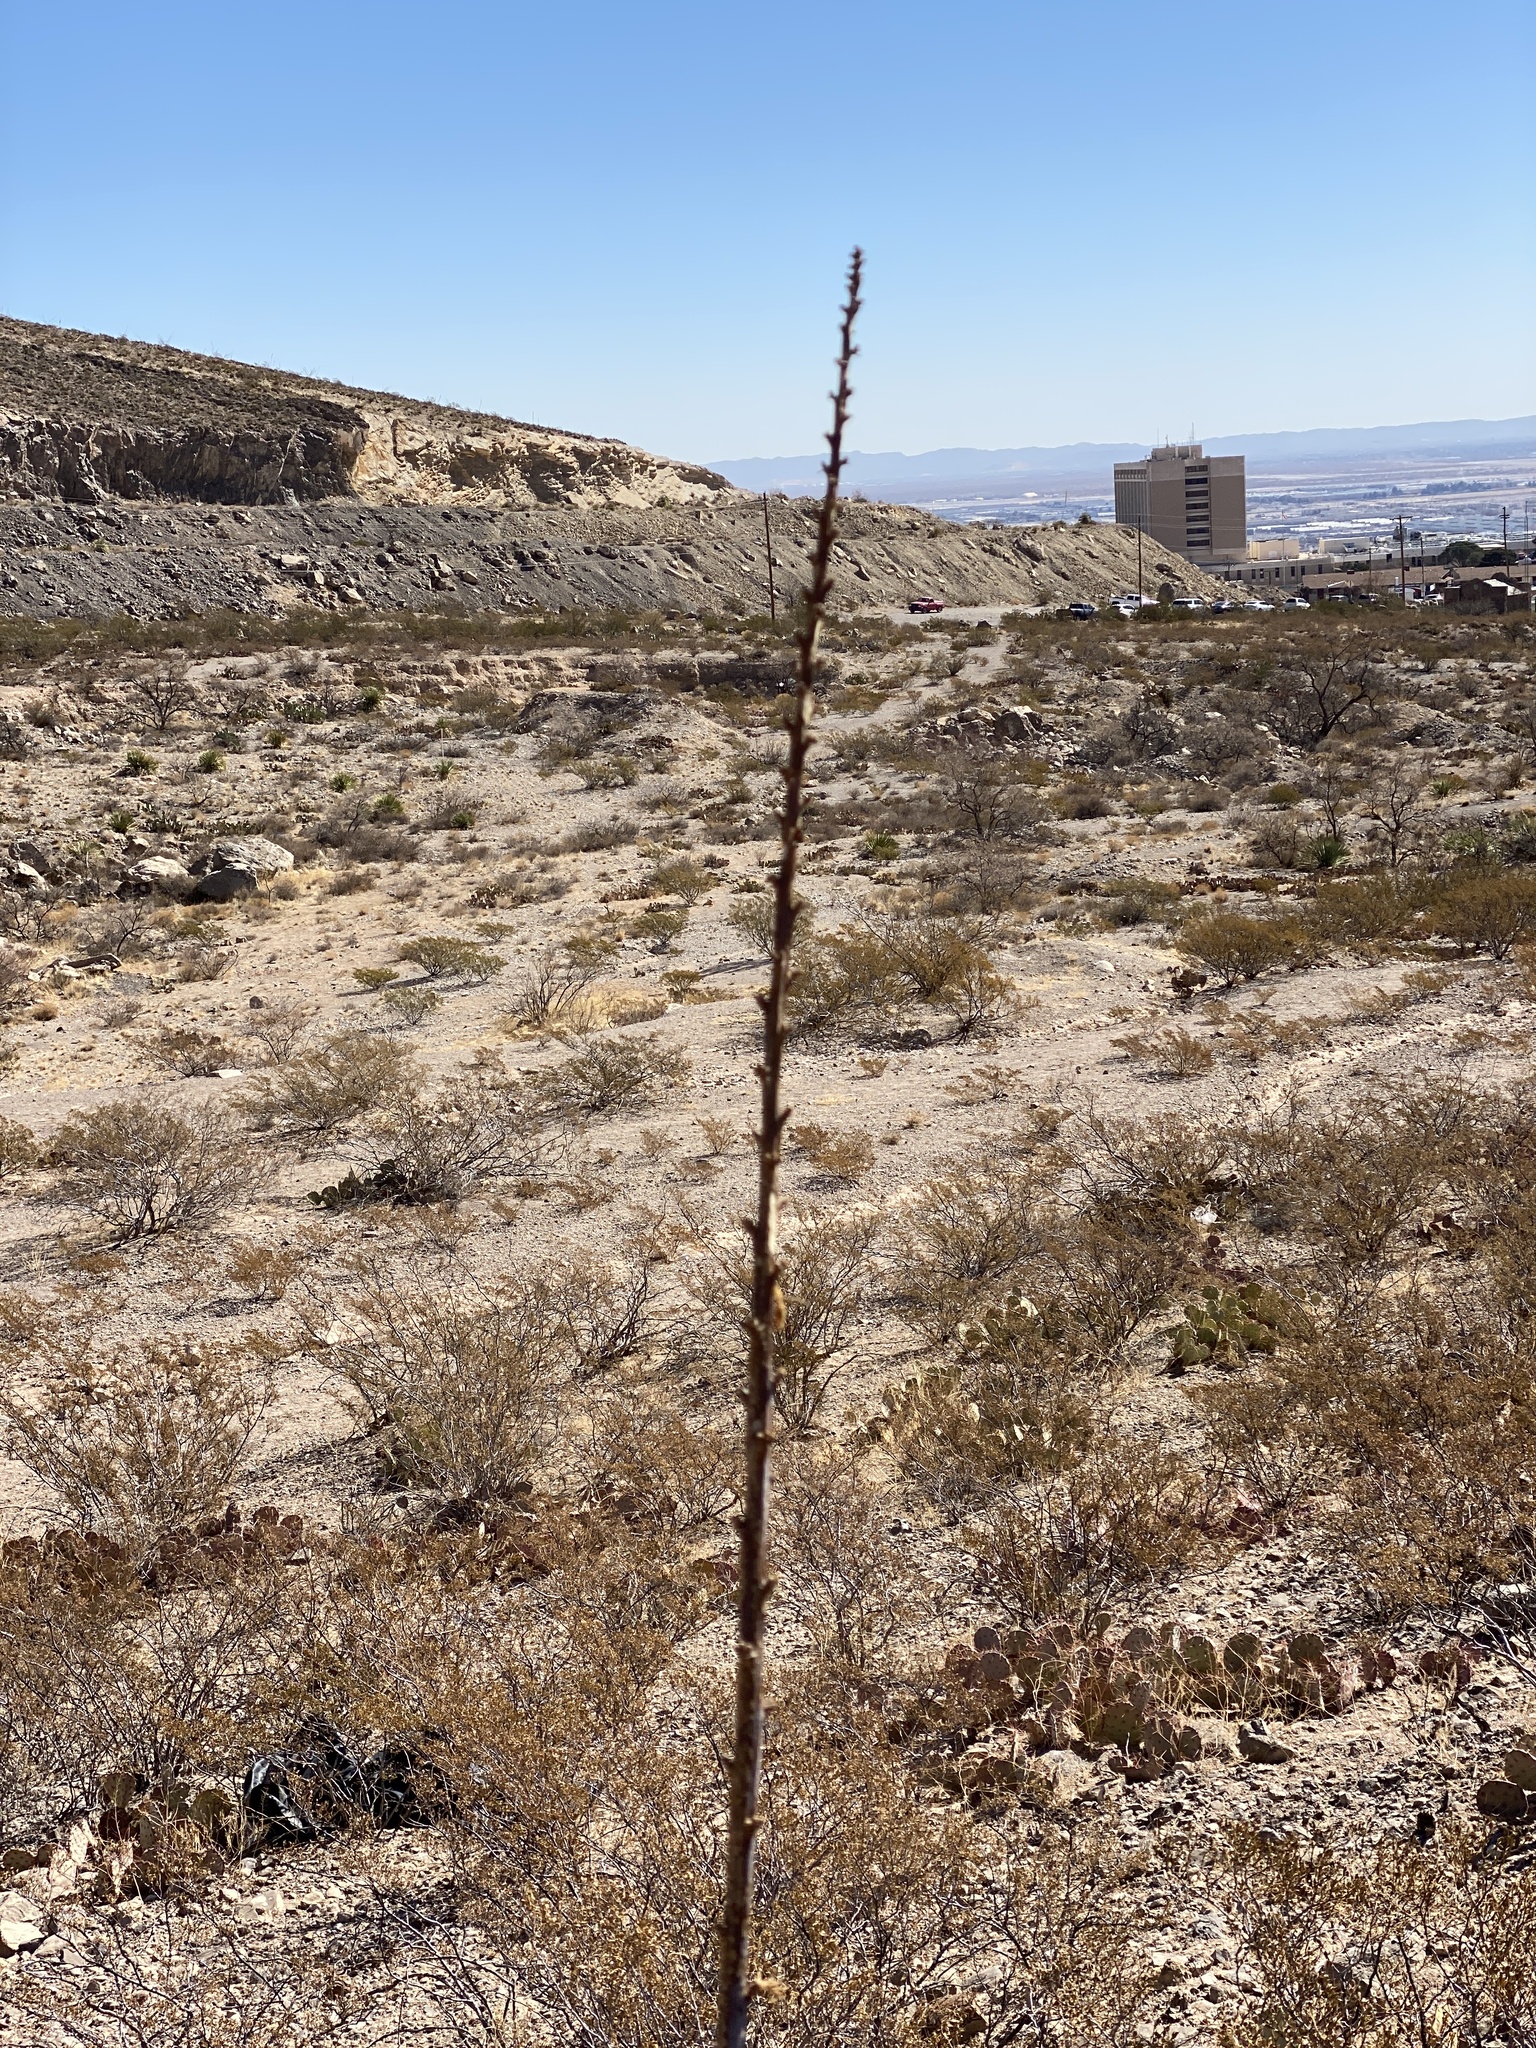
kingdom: Plantae
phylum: Tracheophyta
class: Liliopsida
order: Asparagales
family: Asparagaceae
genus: Agave
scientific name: Agave lechuguilla
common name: Lecheguilla agave
